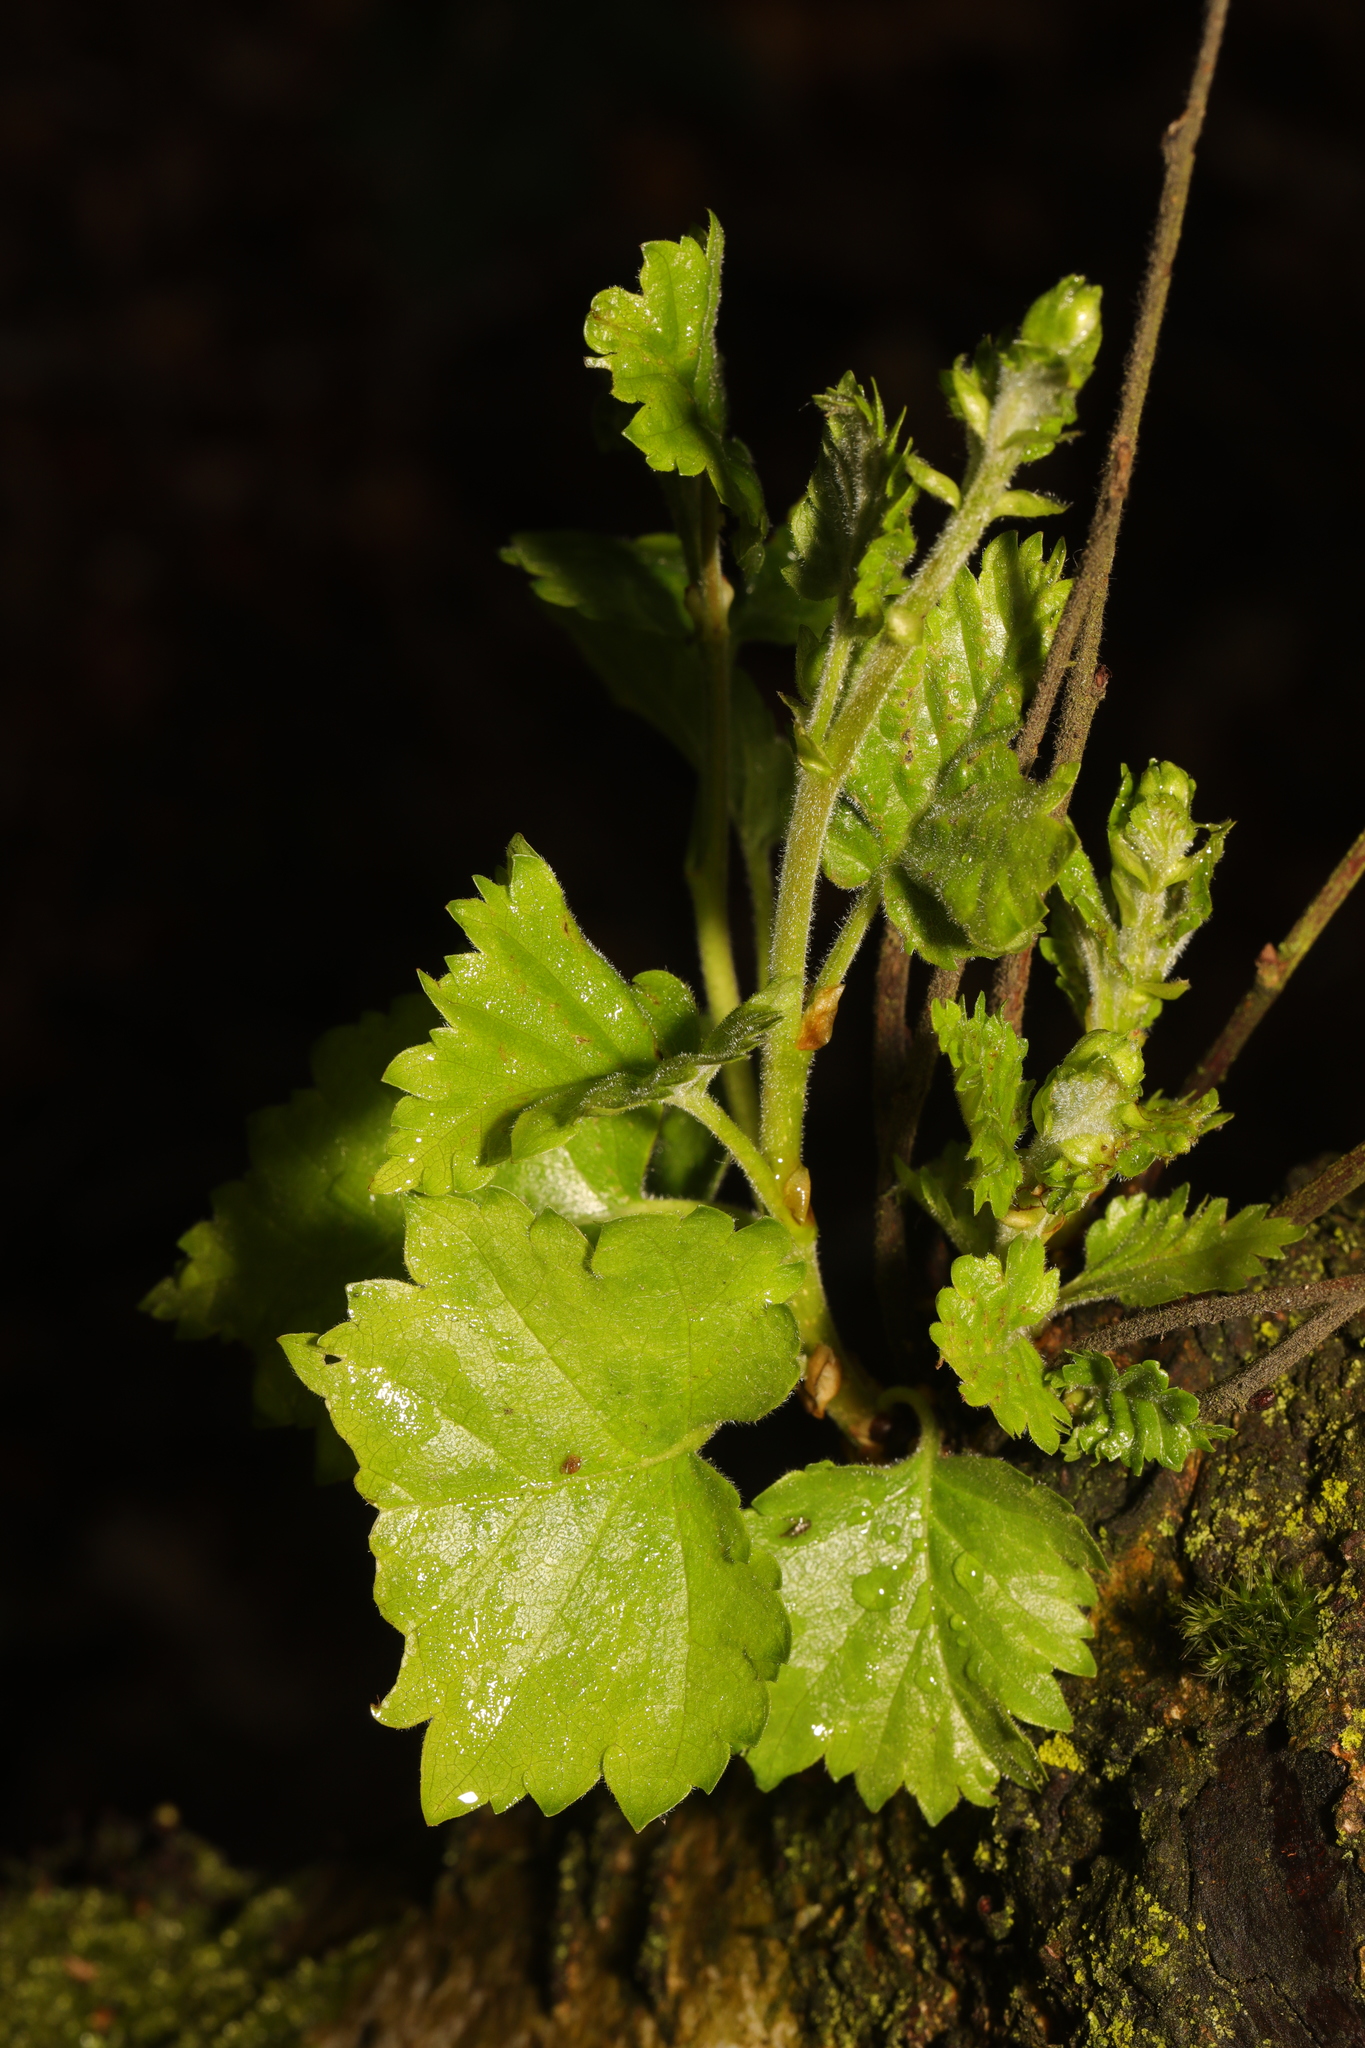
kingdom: Plantae
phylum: Tracheophyta
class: Magnoliopsida
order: Fagales
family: Betulaceae
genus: Betula
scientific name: Betula pubescens
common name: Downy birch
